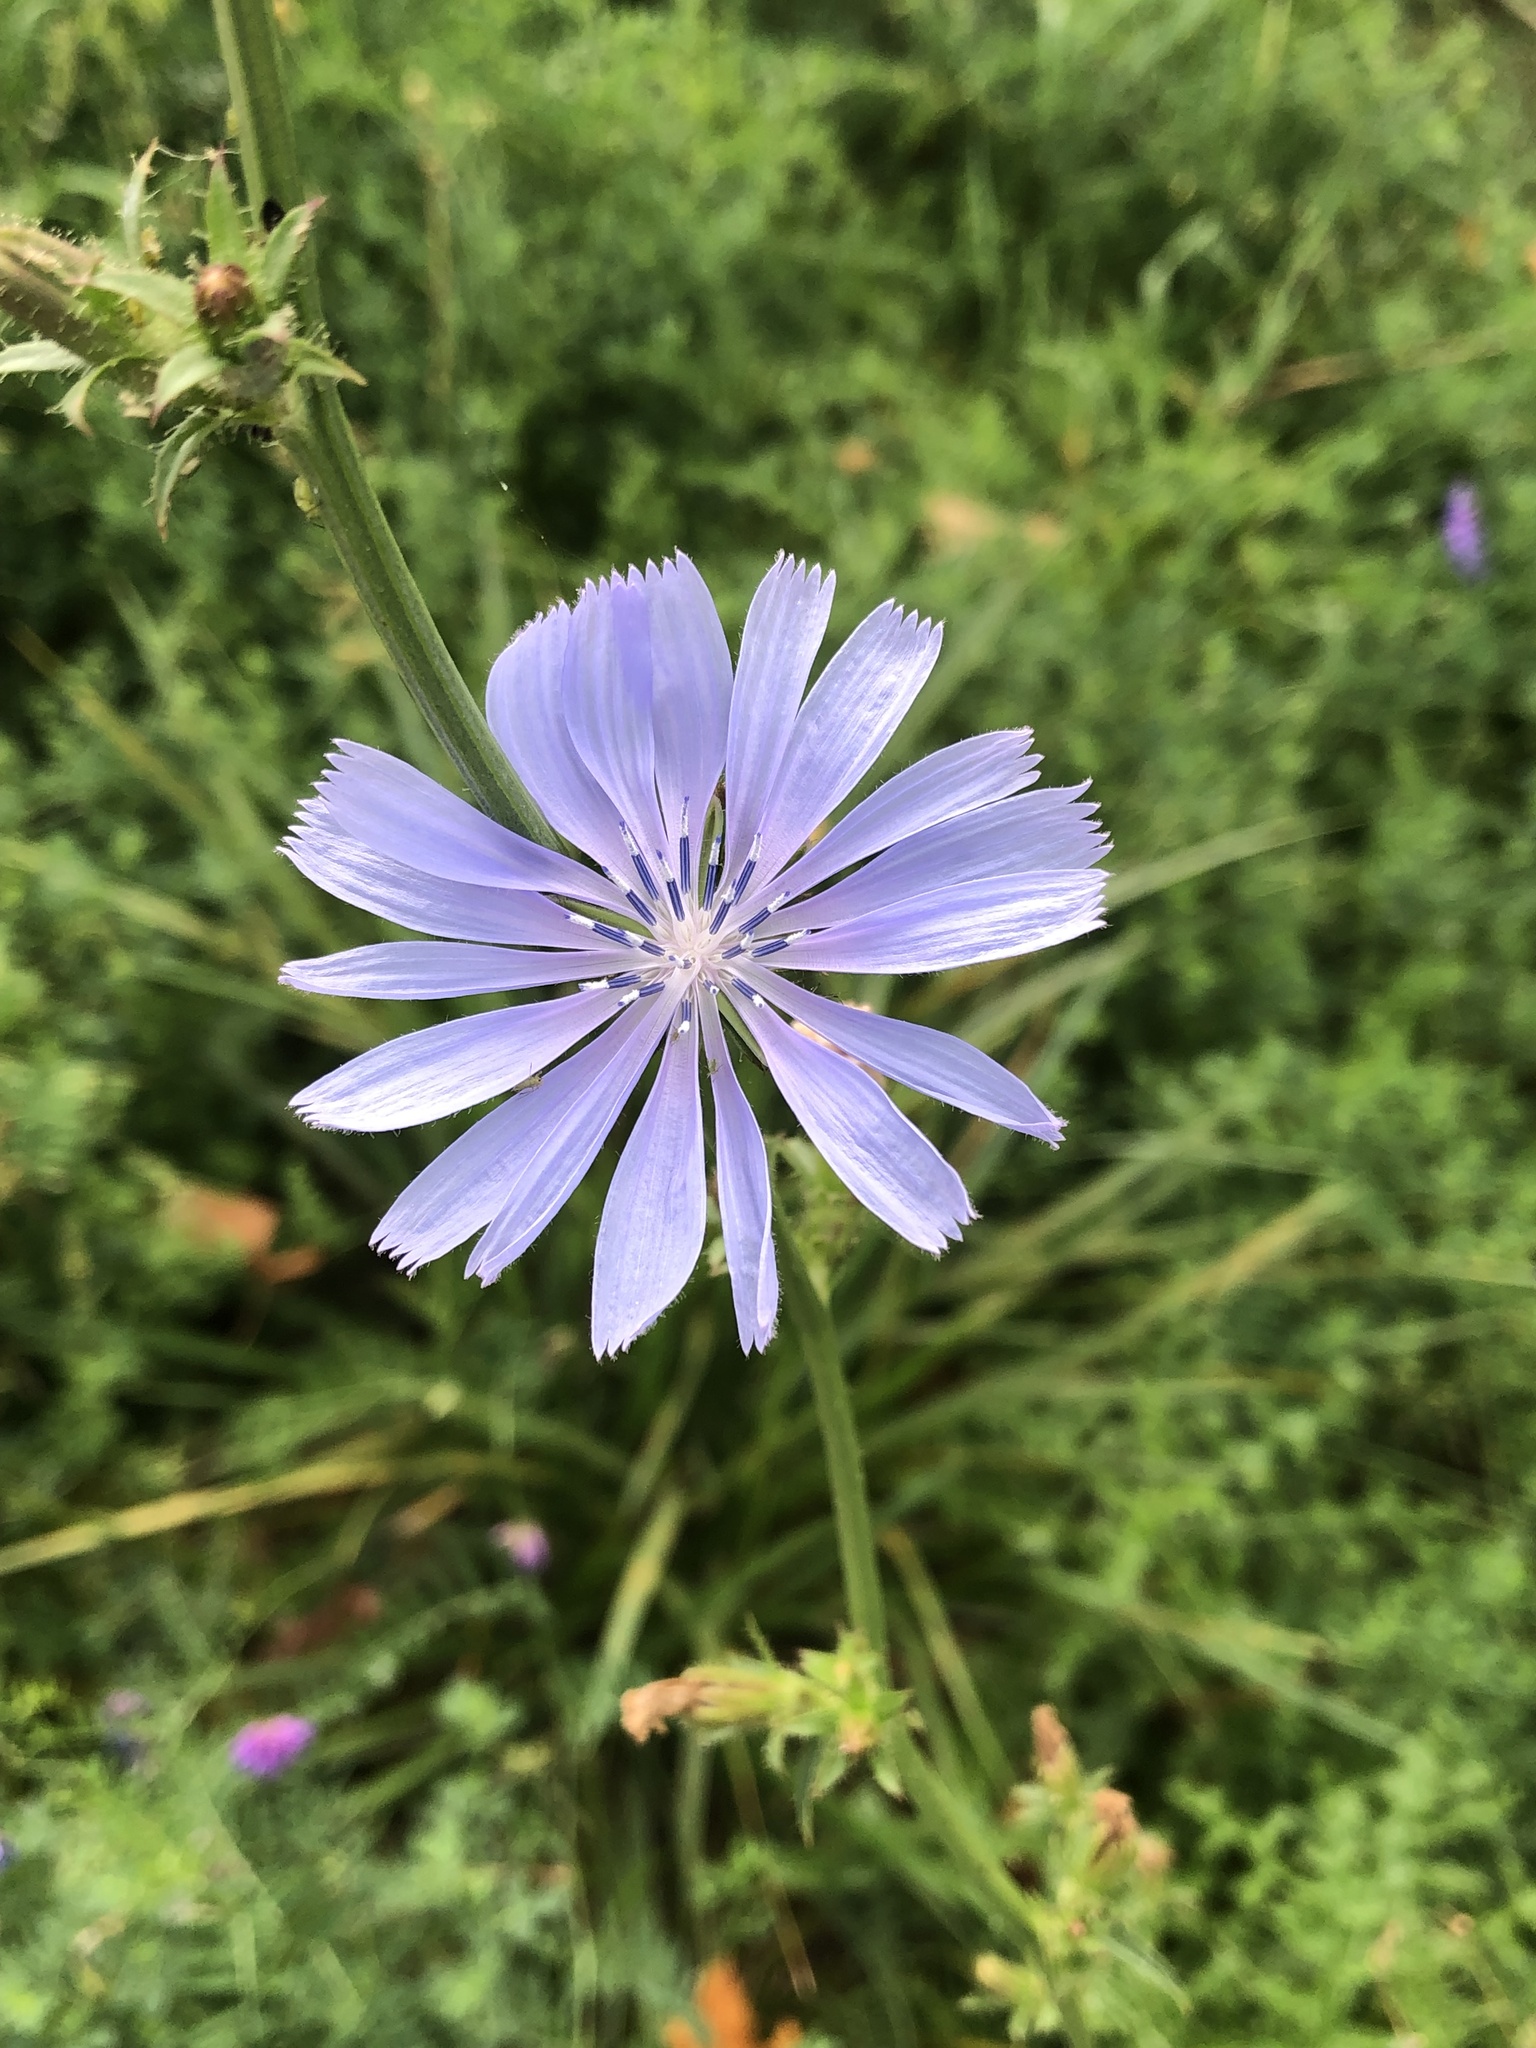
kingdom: Plantae
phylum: Tracheophyta
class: Magnoliopsida
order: Asterales
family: Asteraceae
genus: Cichorium
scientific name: Cichorium intybus
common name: Chicory
